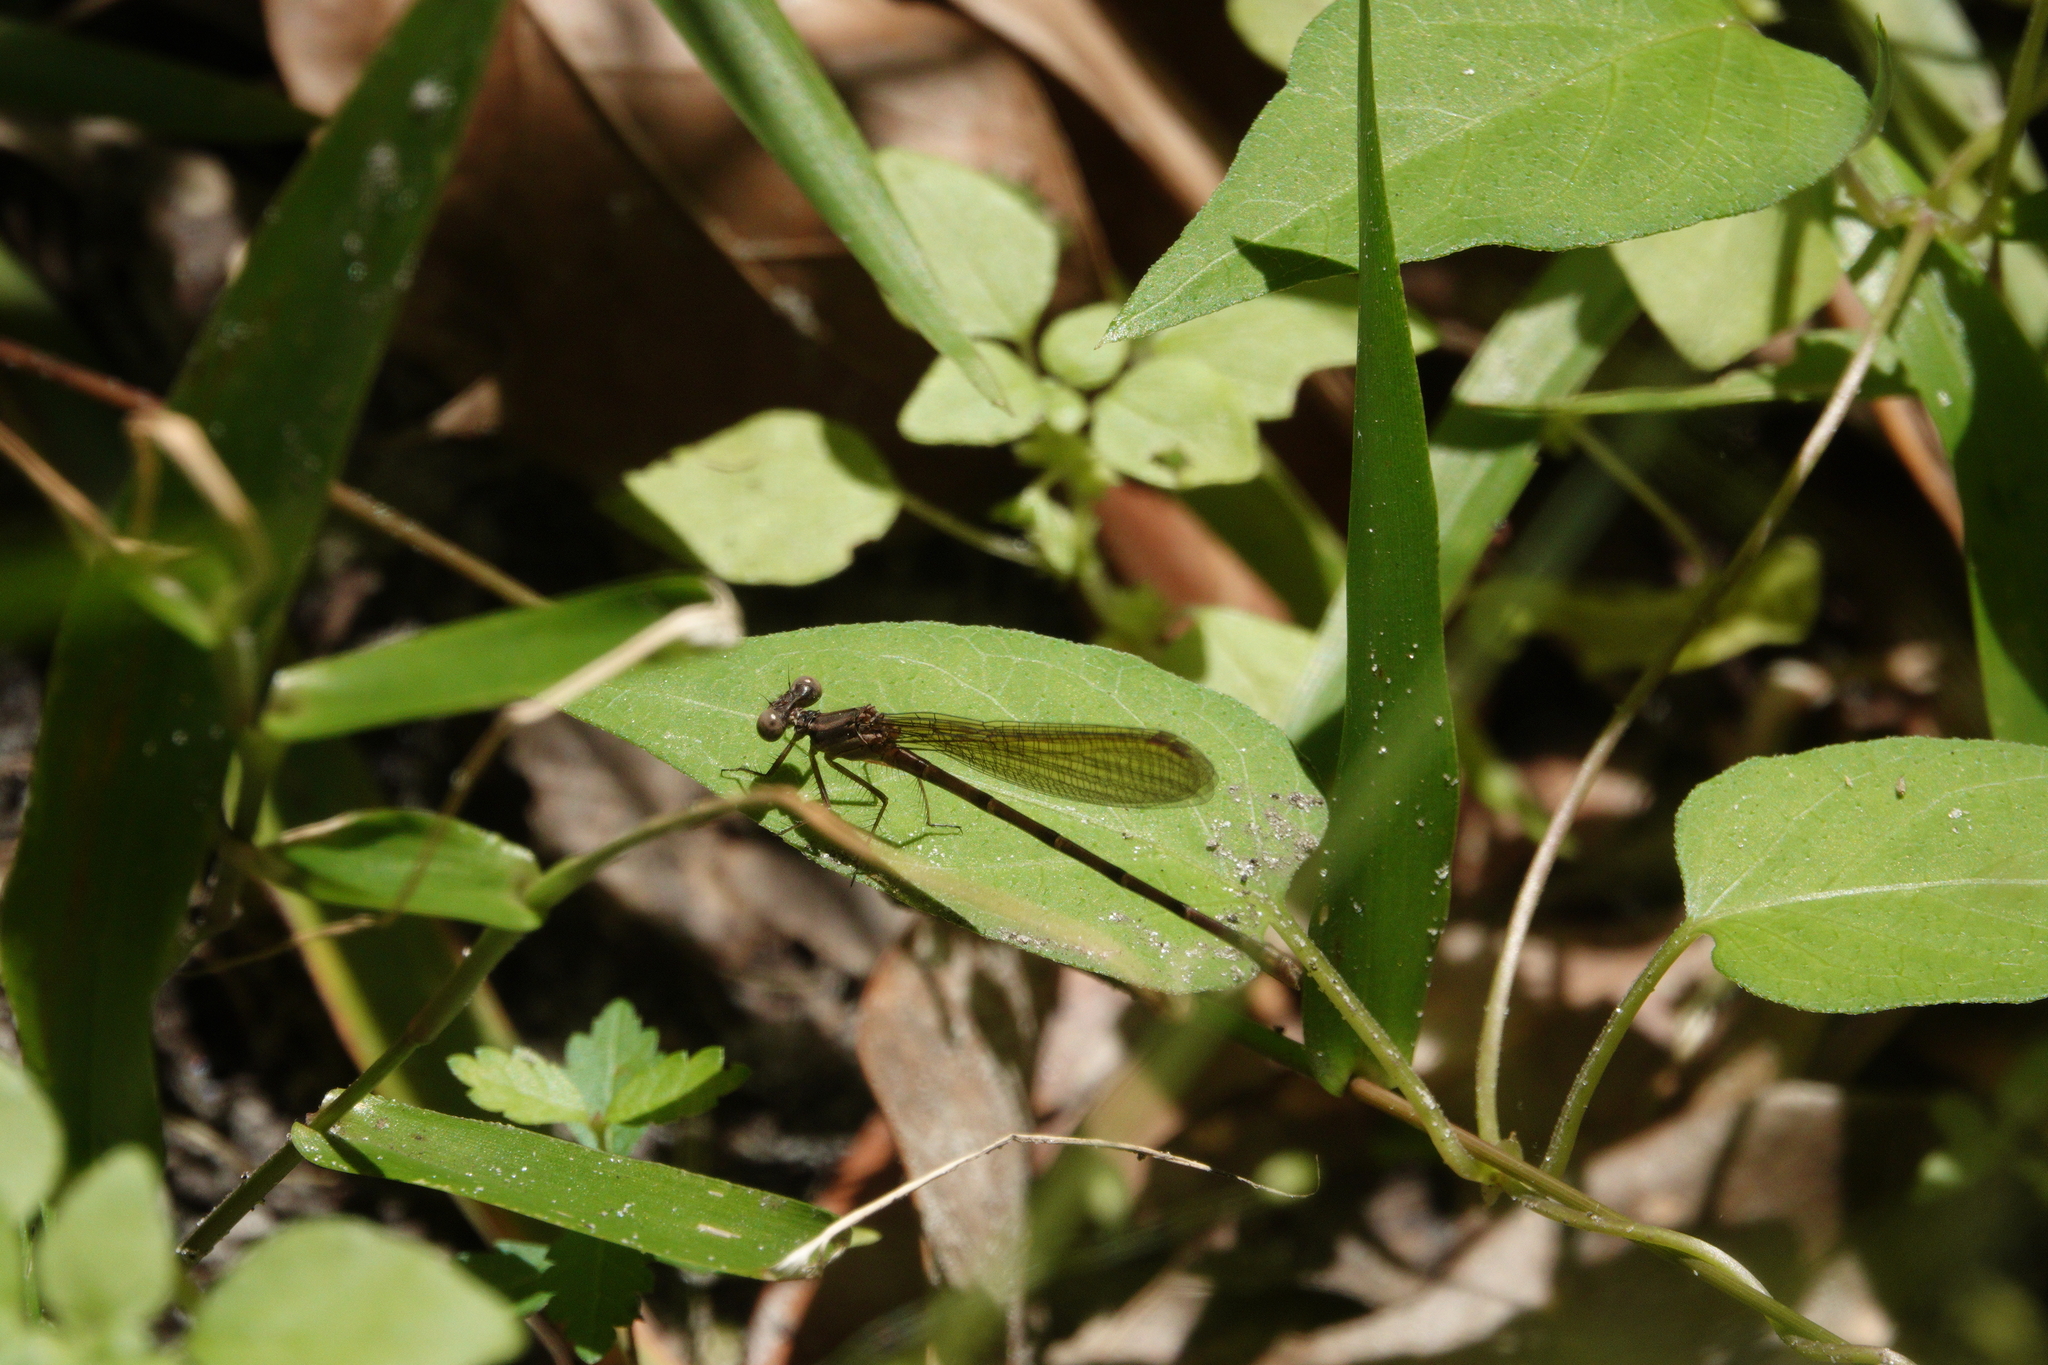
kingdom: Animalia
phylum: Arthropoda
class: Insecta
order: Odonata
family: Coenagrionidae
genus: Argia
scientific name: Argia sedula
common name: Blue-ringed dancer
